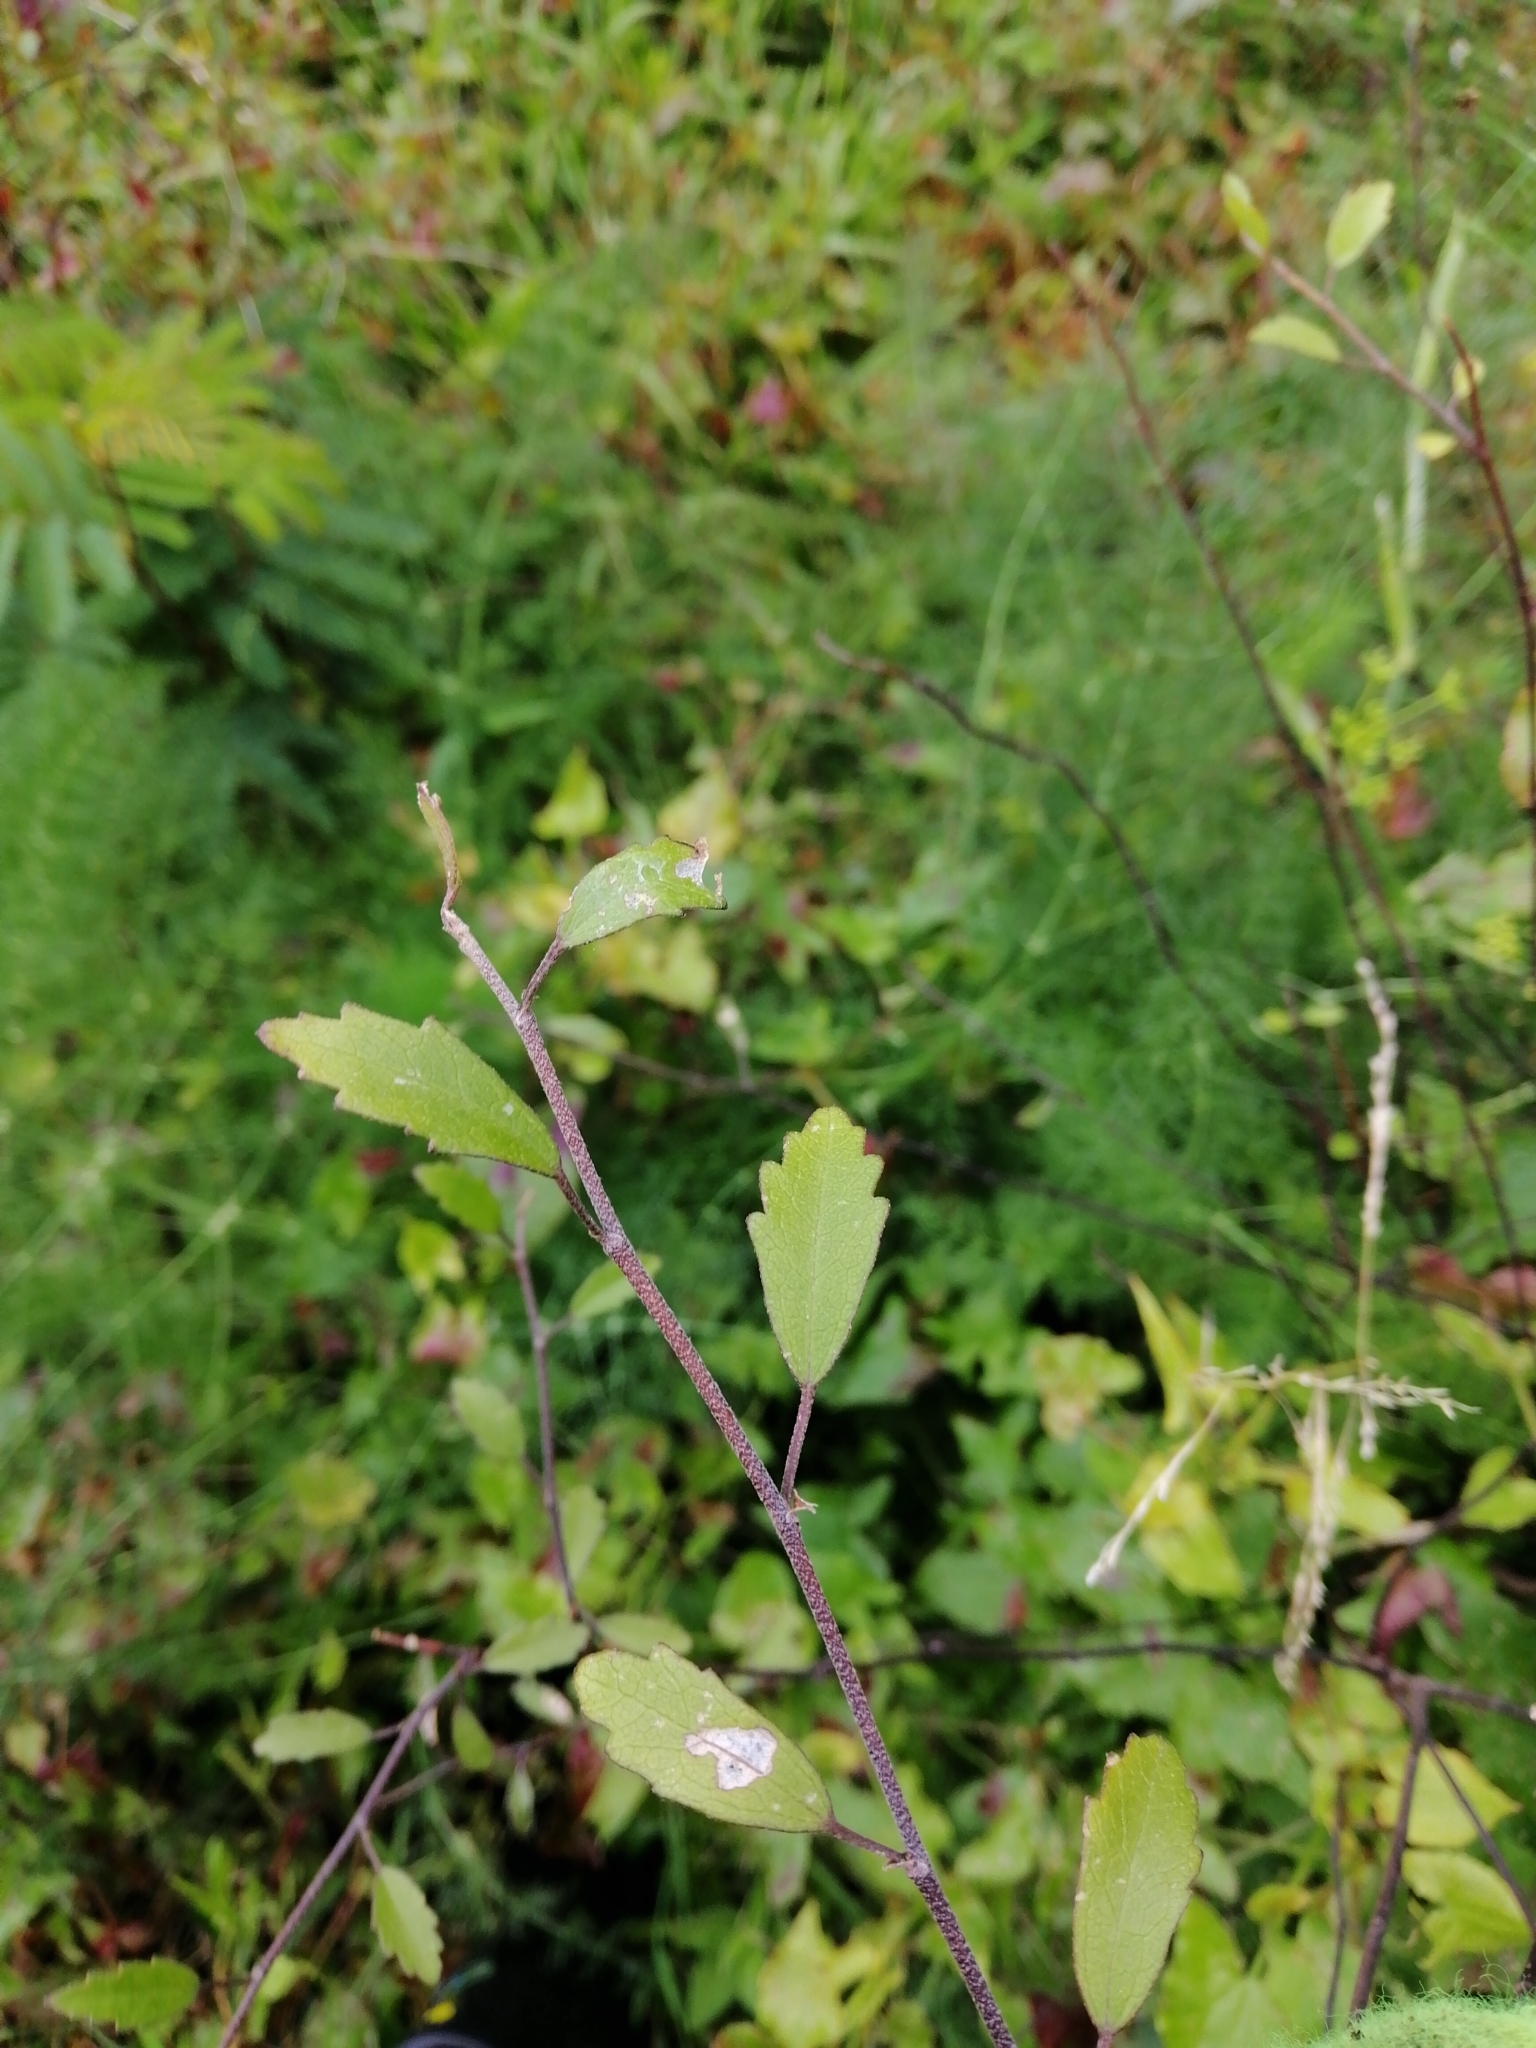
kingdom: Plantae
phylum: Tracheophyta
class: Magnoliopsida
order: Malvales
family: Malvaceae
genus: Plagianthus
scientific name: Plagianthus regius
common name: Manatu
